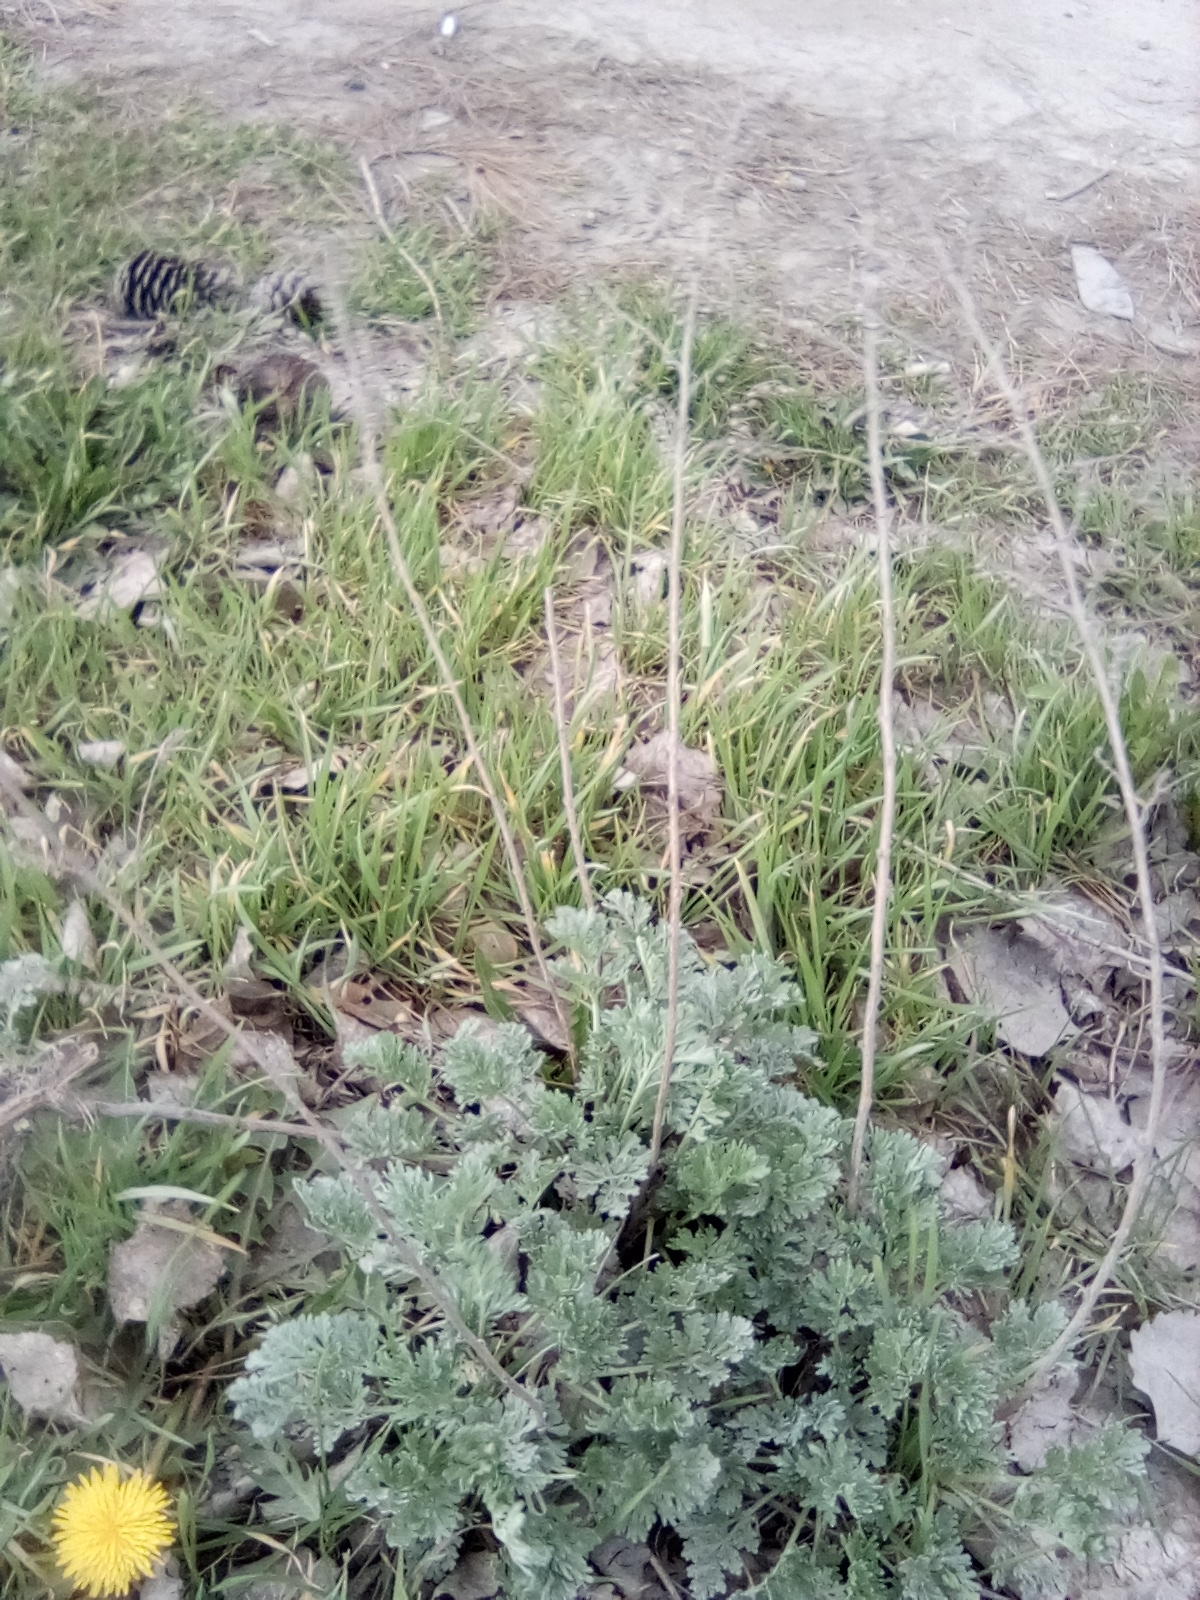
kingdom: Plantae
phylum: Tracheophyta
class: Magnoliopsida
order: Asterales
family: Asteraceae
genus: Artemisia
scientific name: Artemisia absinthium
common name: Wormwood
